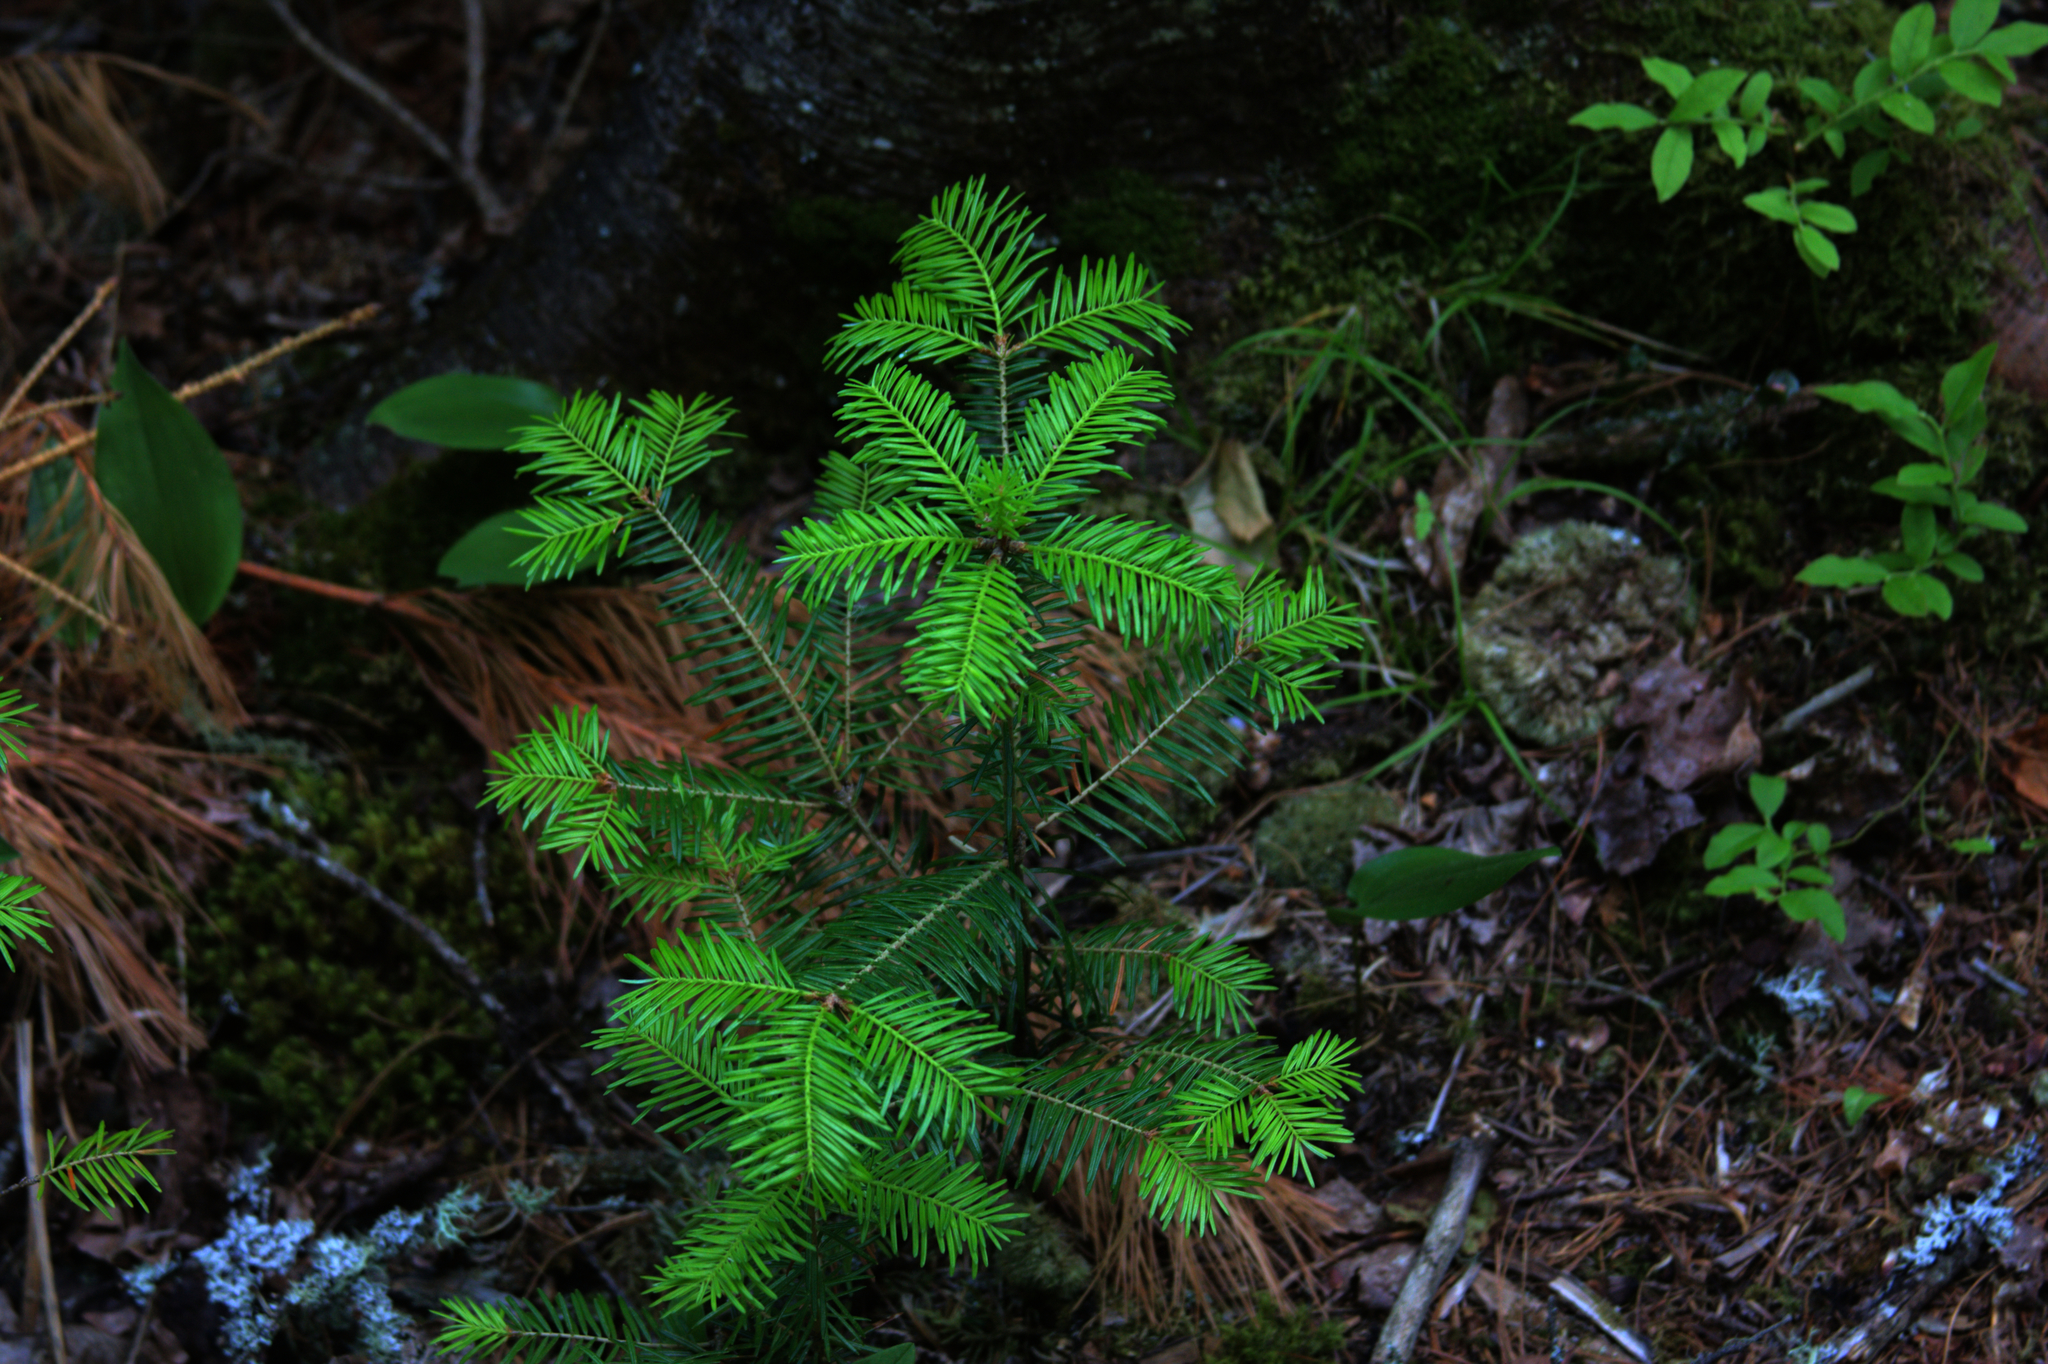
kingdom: Plantae
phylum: Tracheophyta
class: Pinopsida
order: Pinales
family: Pinaceae
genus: Abies
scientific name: Abies balsamea
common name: Balsam fir
